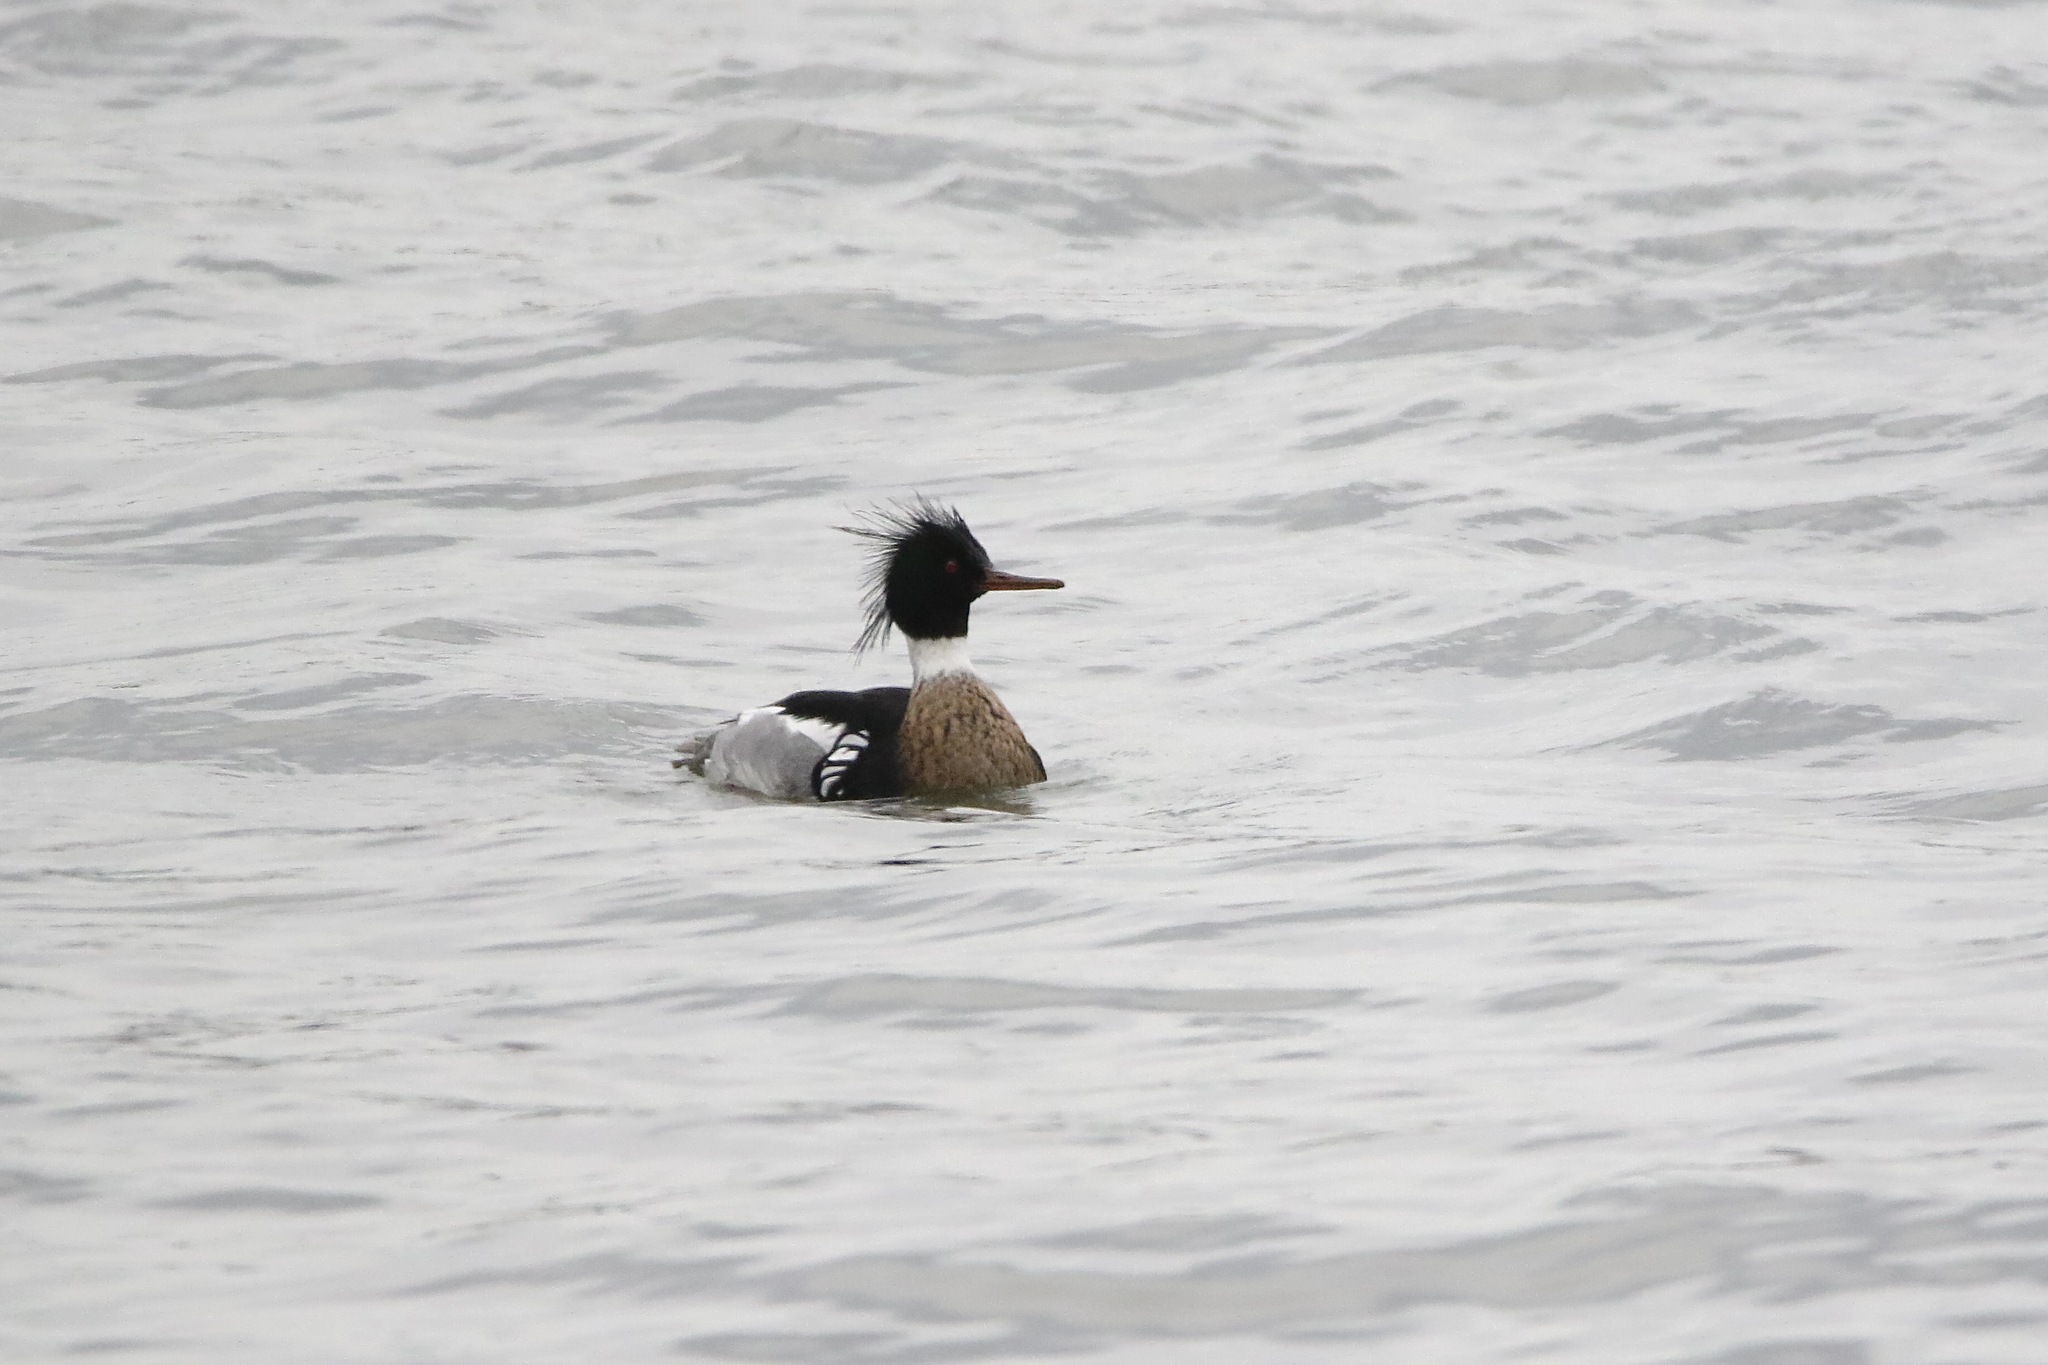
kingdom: Animalia
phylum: Chordata
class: Aves
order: Anseriformes
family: Anatidae
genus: Mergus
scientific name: Mergus serrator
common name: Red-breasted merganser
